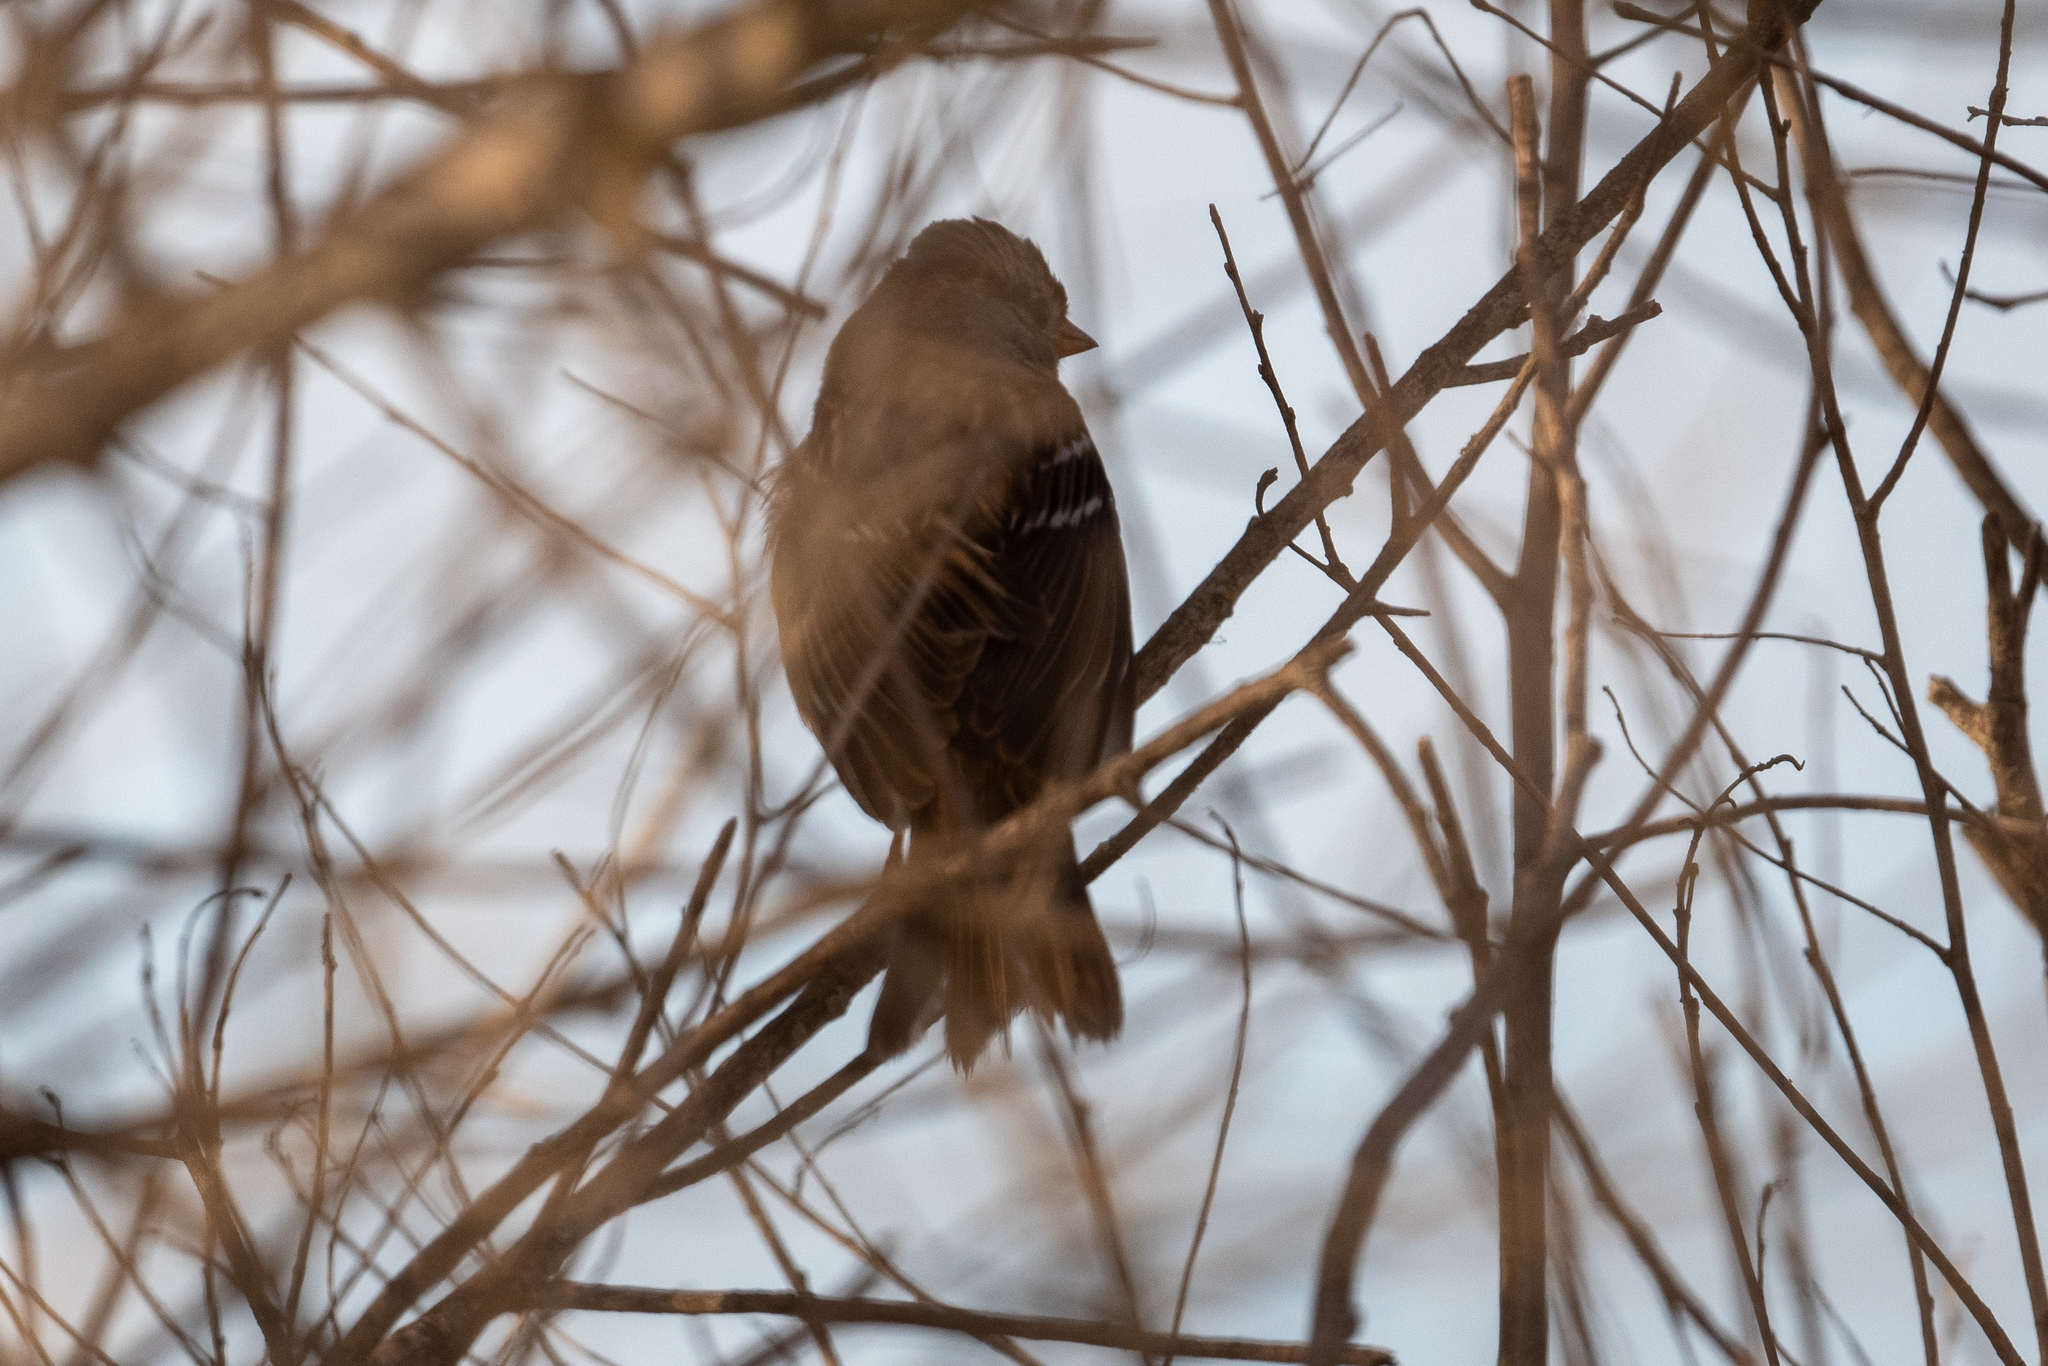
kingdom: Animalia
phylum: Chordata
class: Aves
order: Passeriformes
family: Passerellidae
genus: Zonotrichia
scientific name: Zonotrichia leucophrys
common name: White-crowned sparrow
